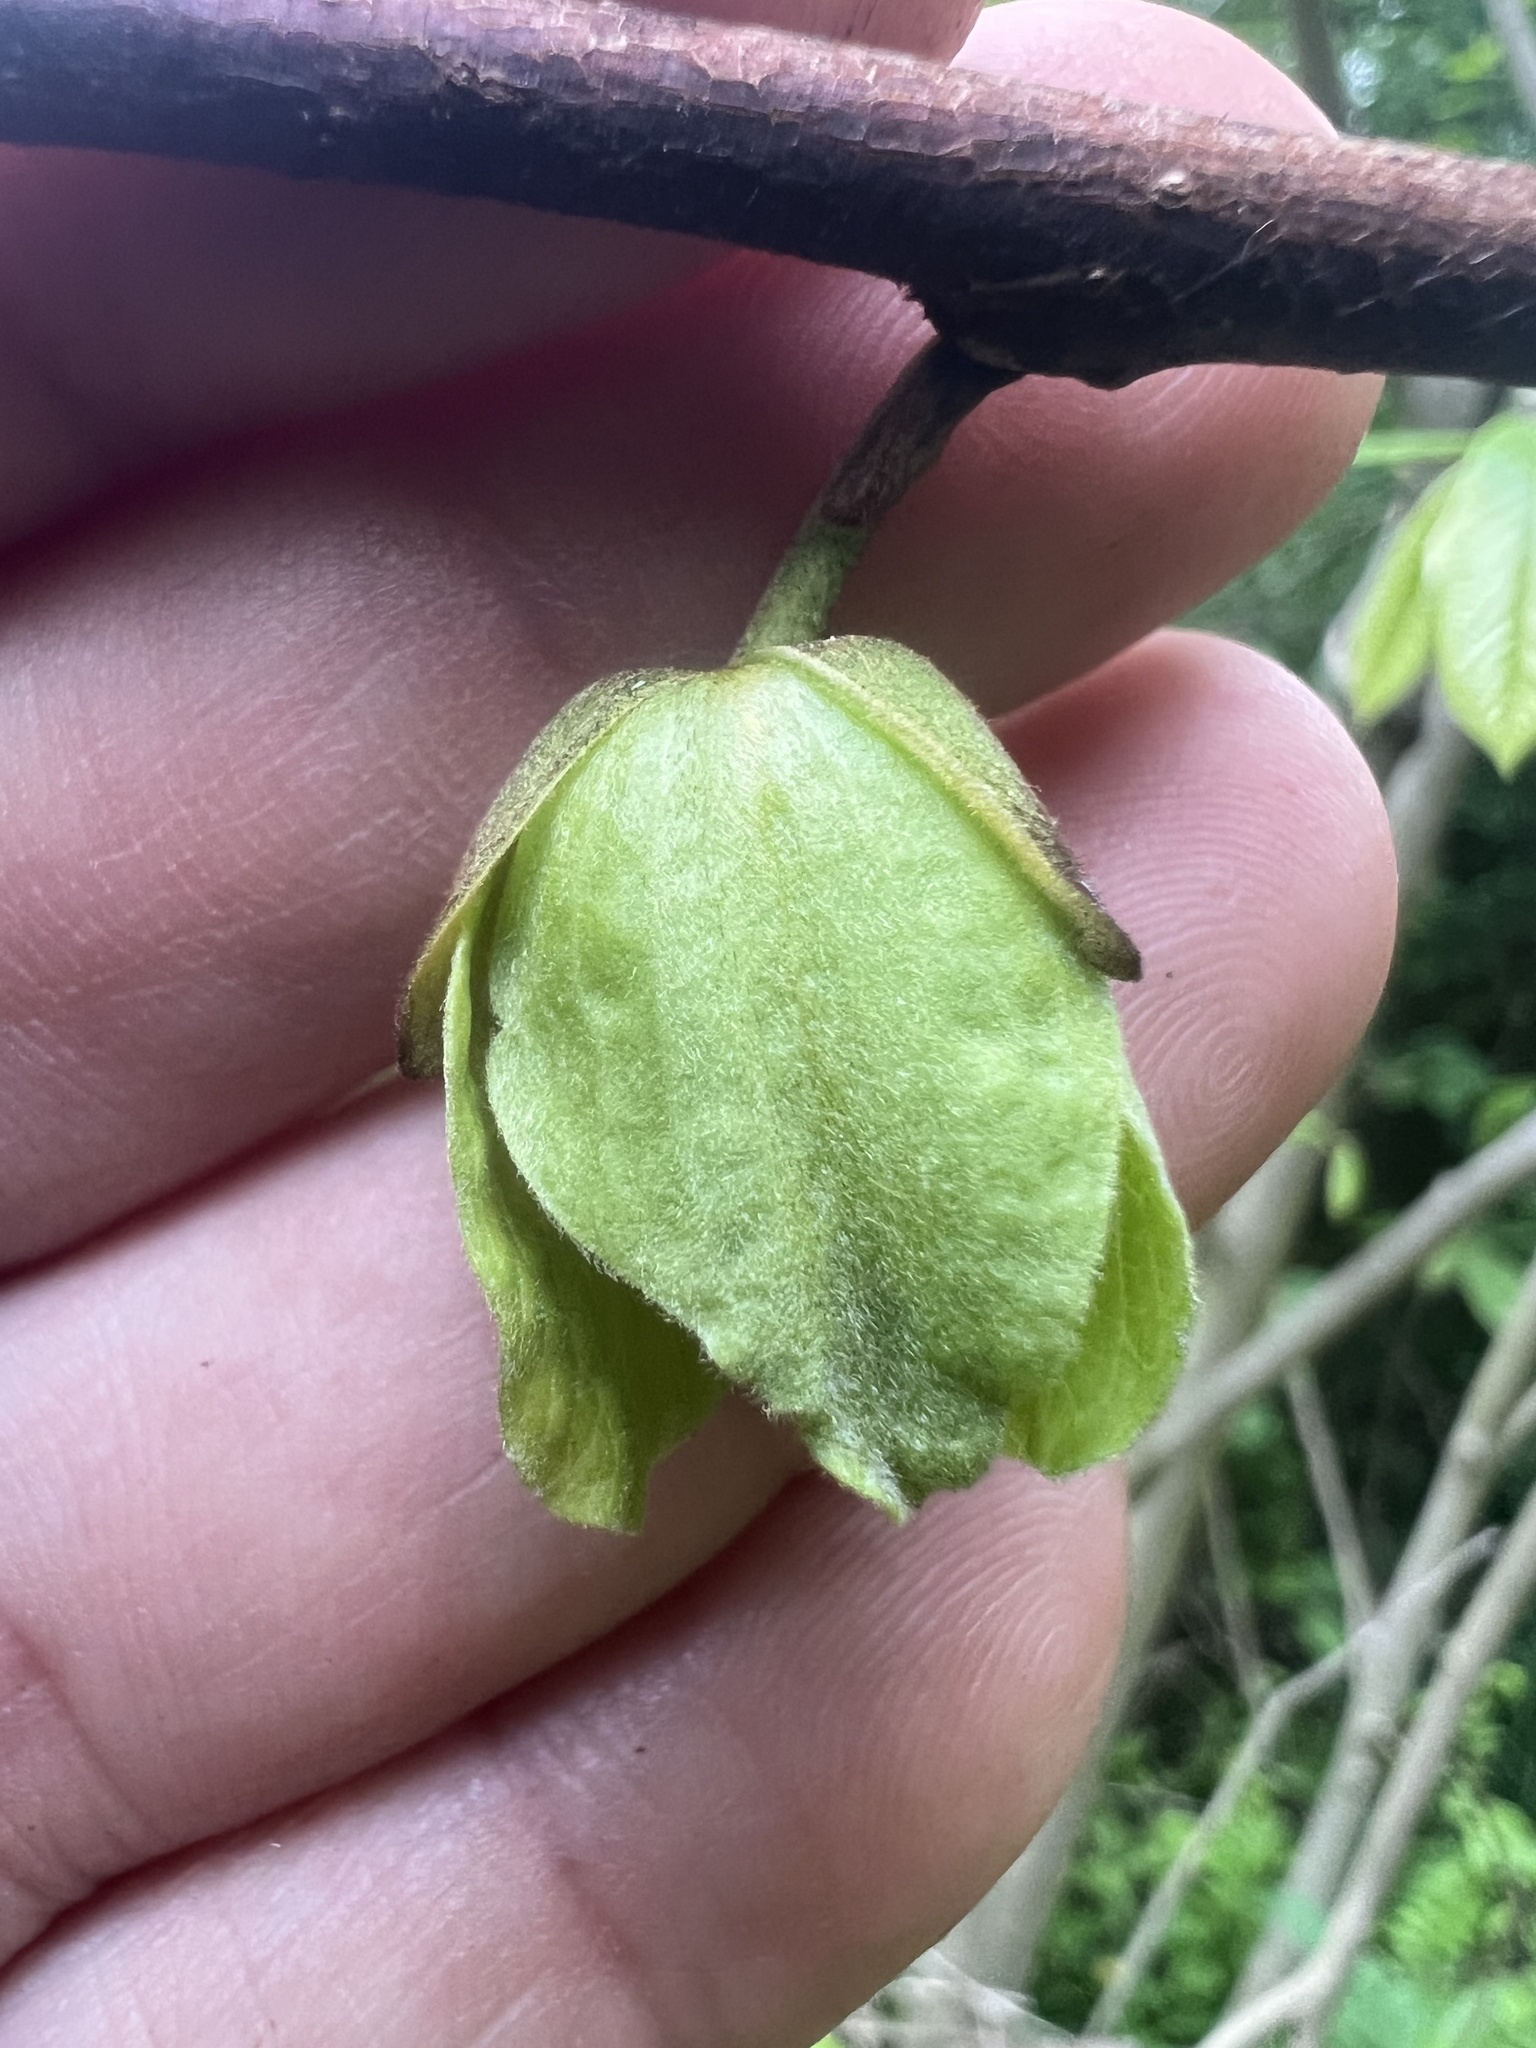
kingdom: Plantae
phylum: Tracheophyta
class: Magnoliopsida
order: Magnoliales
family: Annonaceae
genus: Asimina
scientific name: Asimina triloba
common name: Dog-banana
